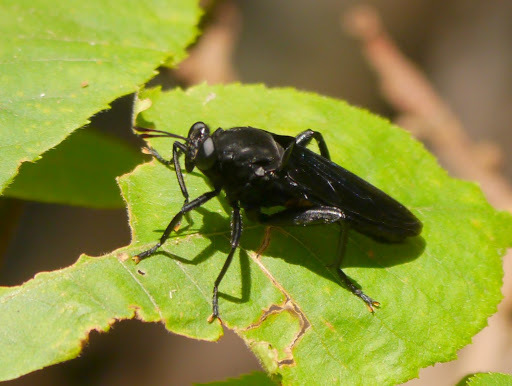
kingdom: Animalia
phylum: Arthropoda
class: Insecta
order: Diptera
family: Mydidae
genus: Mydas
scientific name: Mydas clavatus
